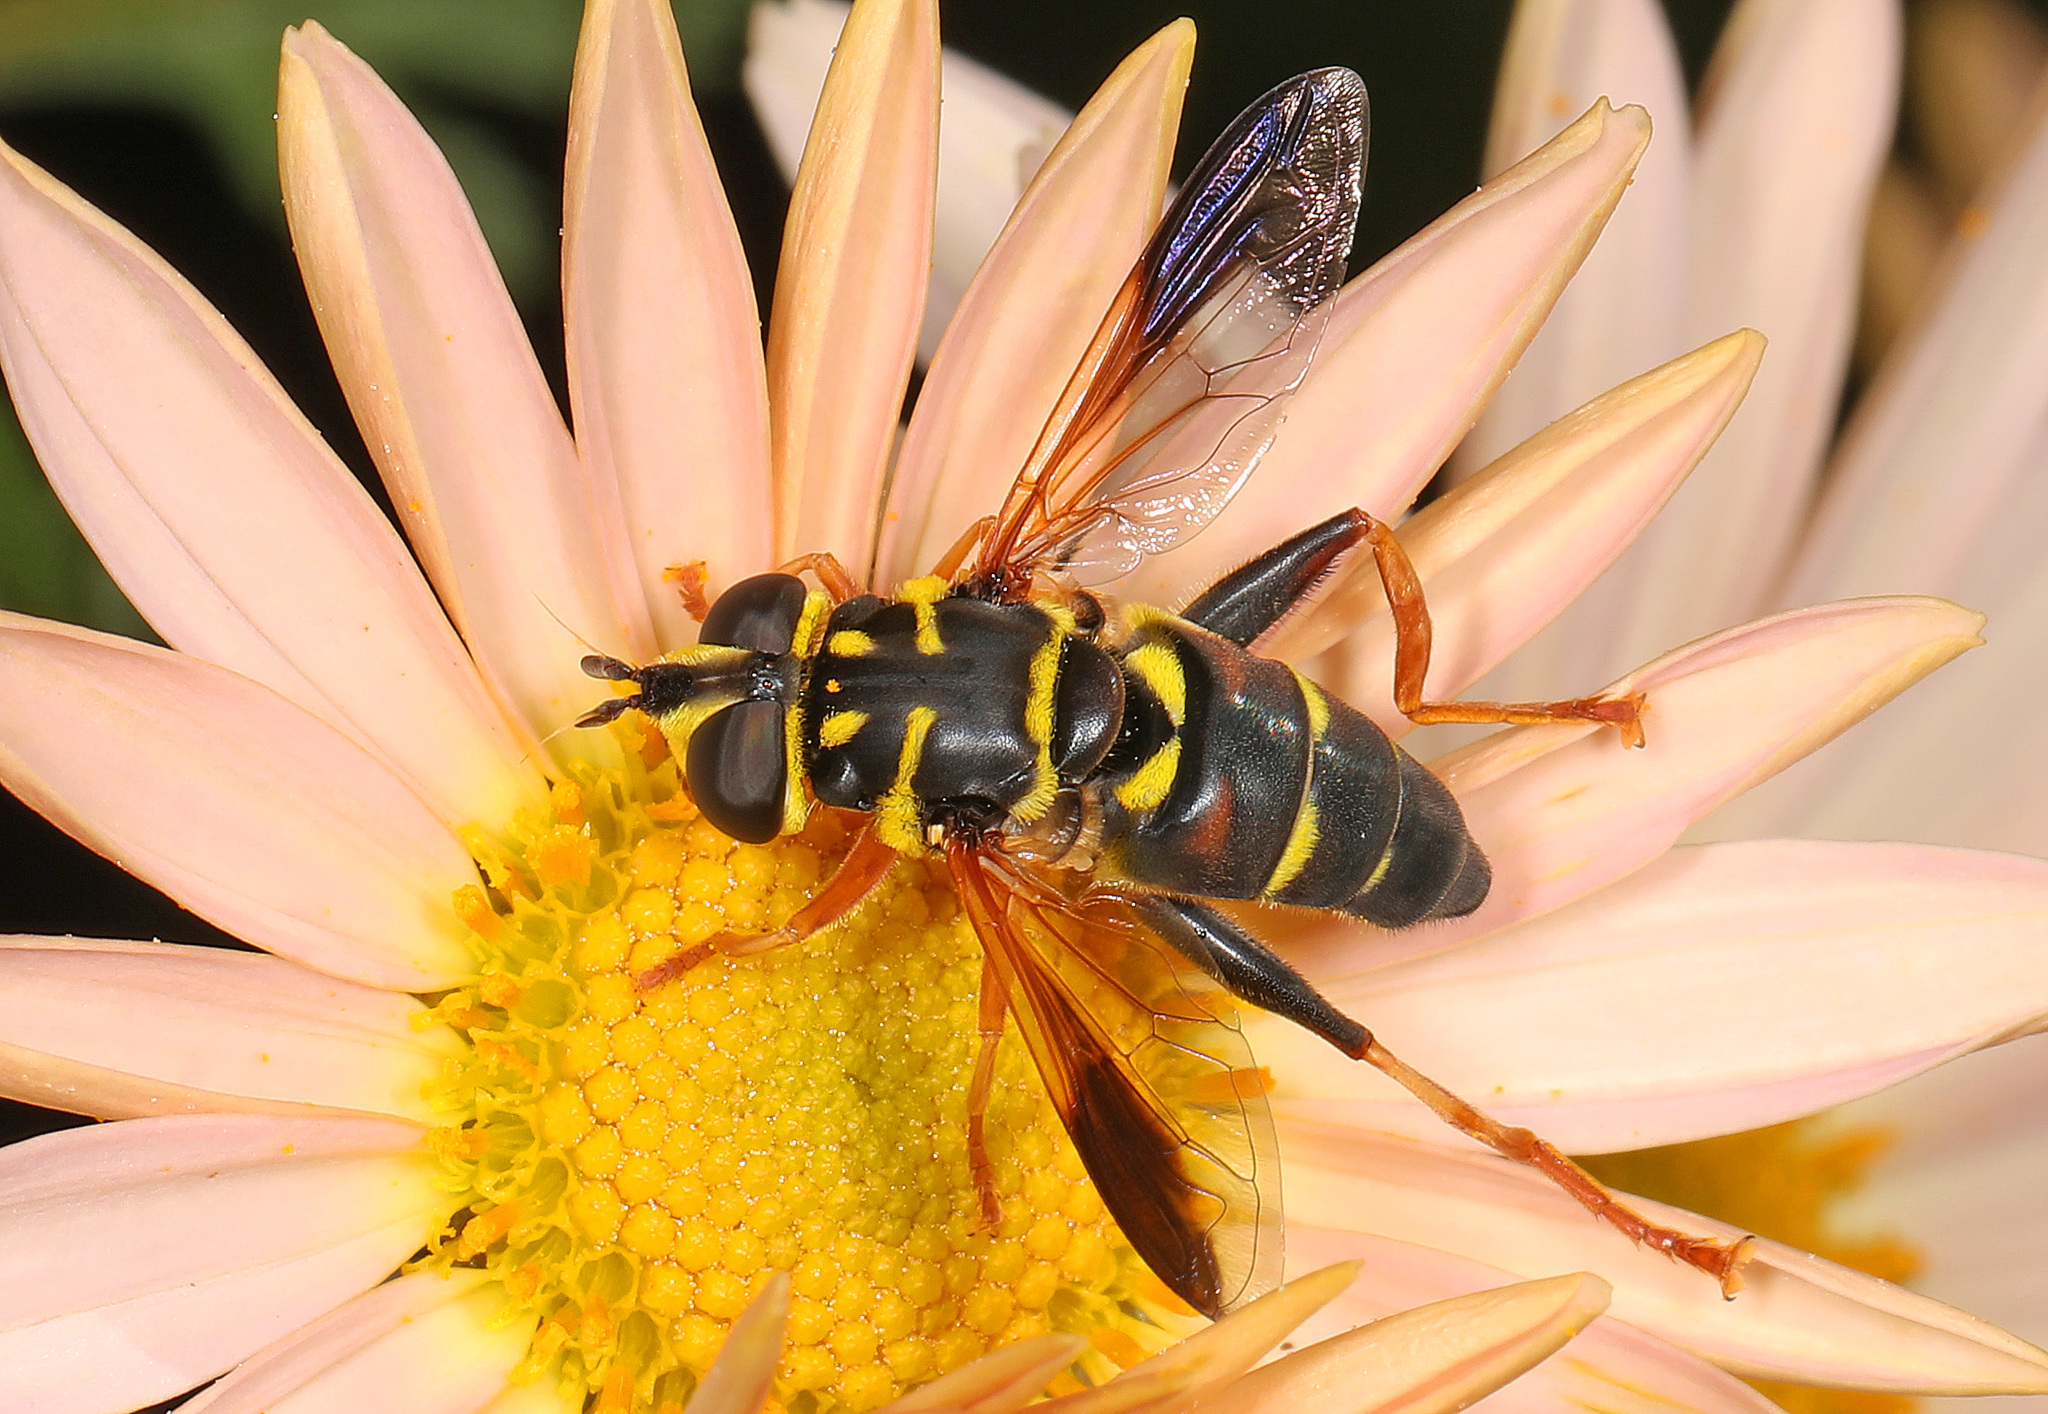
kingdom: Animalia
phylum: Arthropoda
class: Insecta
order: Diptera
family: Syrphidae
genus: Meromacrus
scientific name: Meromacrus acutus
